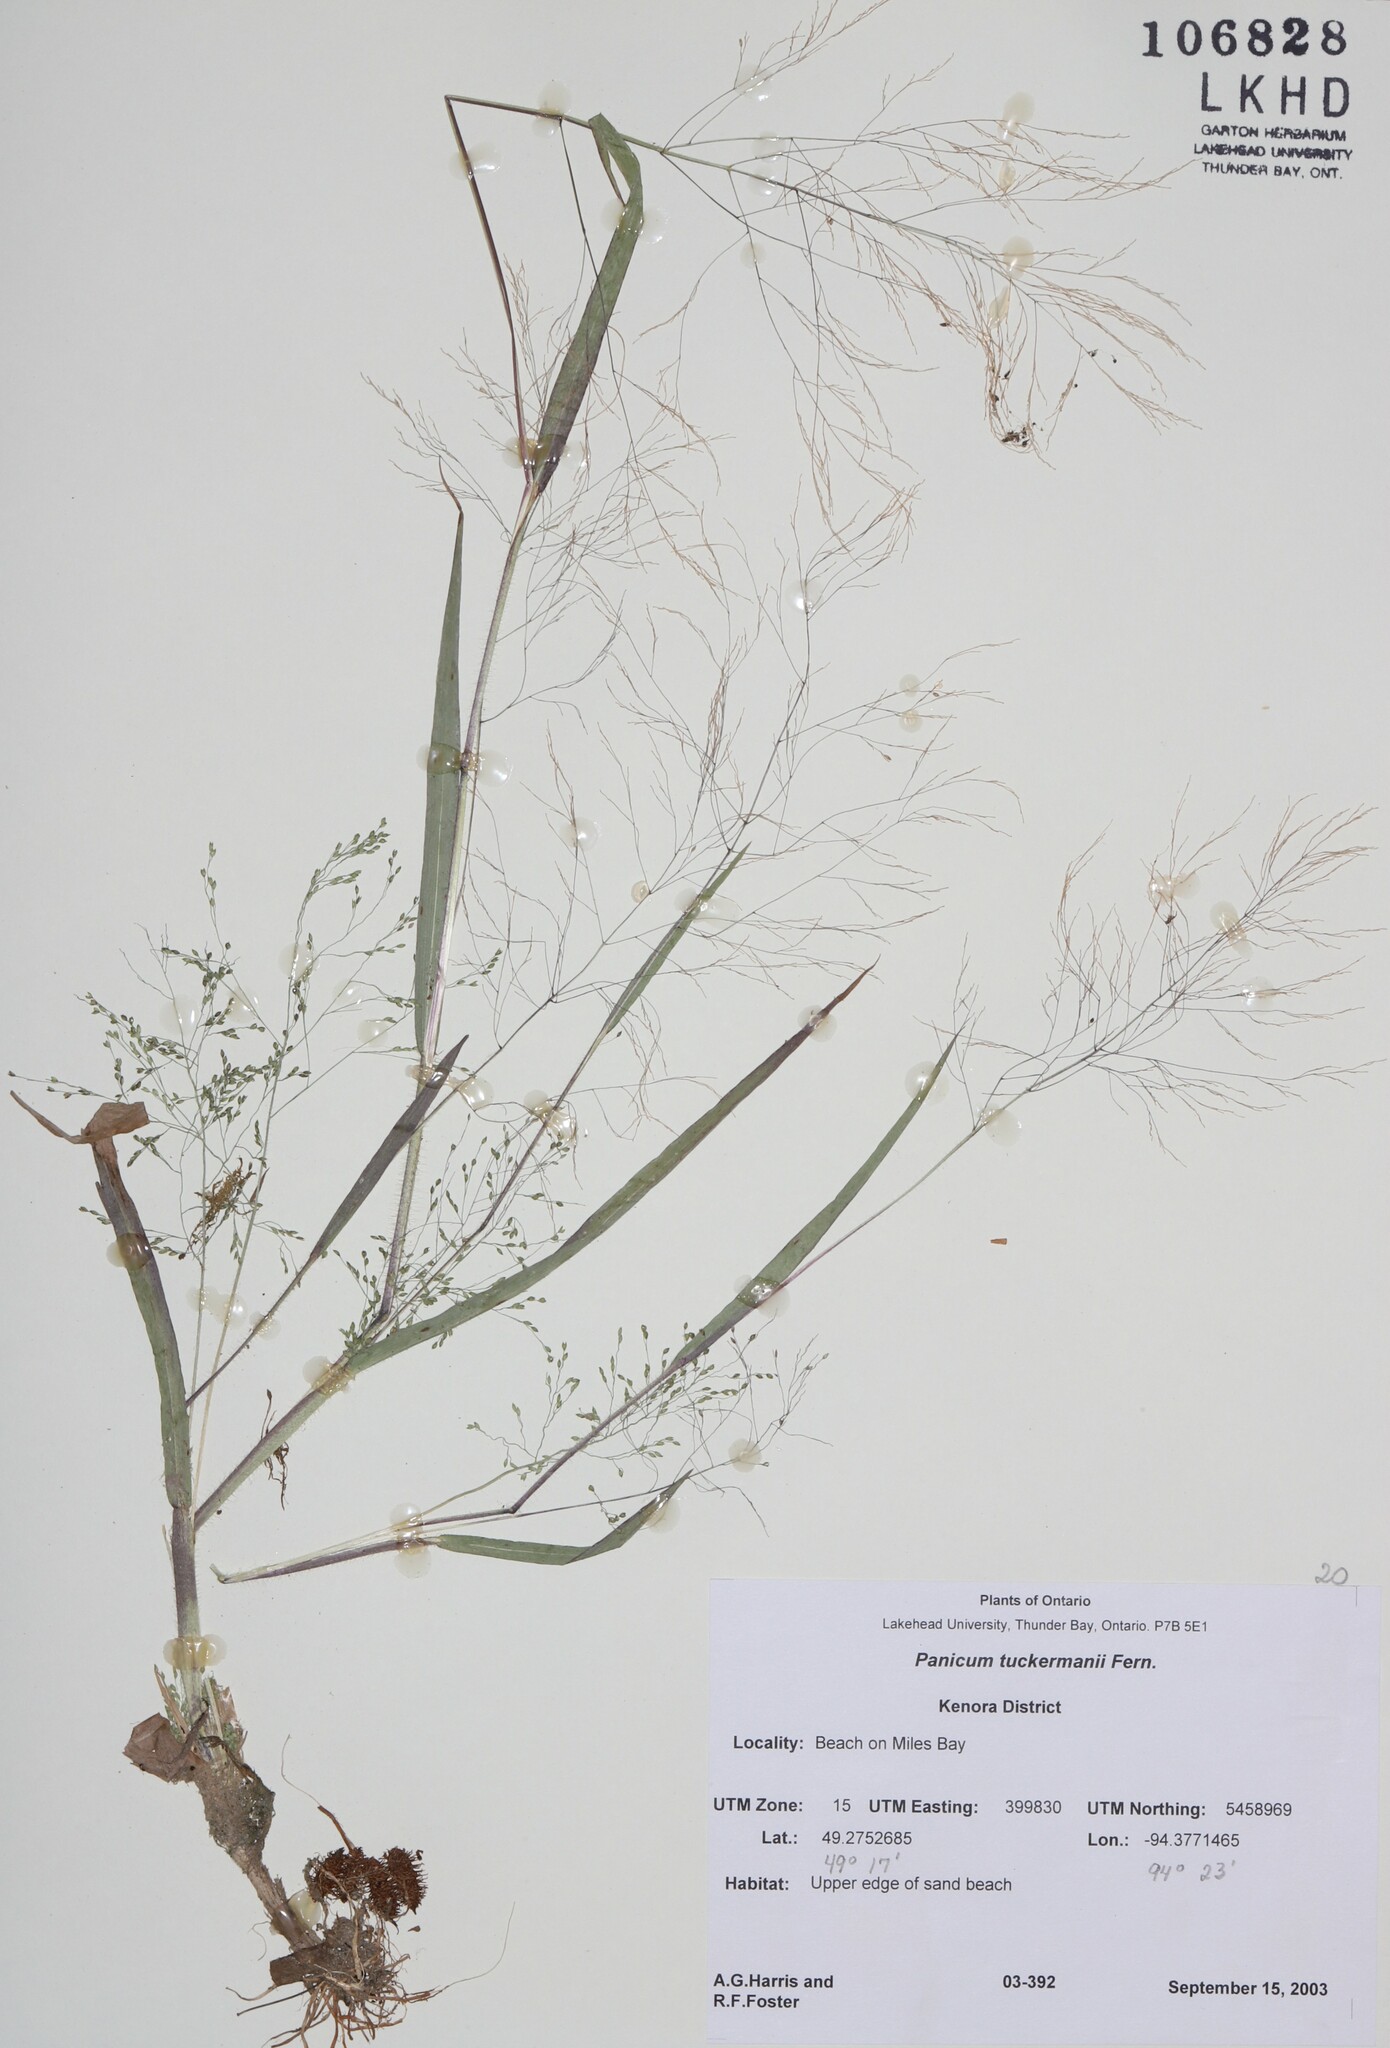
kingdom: Plantae
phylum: Tracheophyta
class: Liliopsida
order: Poales
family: Poaceae
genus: Panicum
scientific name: Panicum philadelphicum
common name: Philadelphia witchgrass
